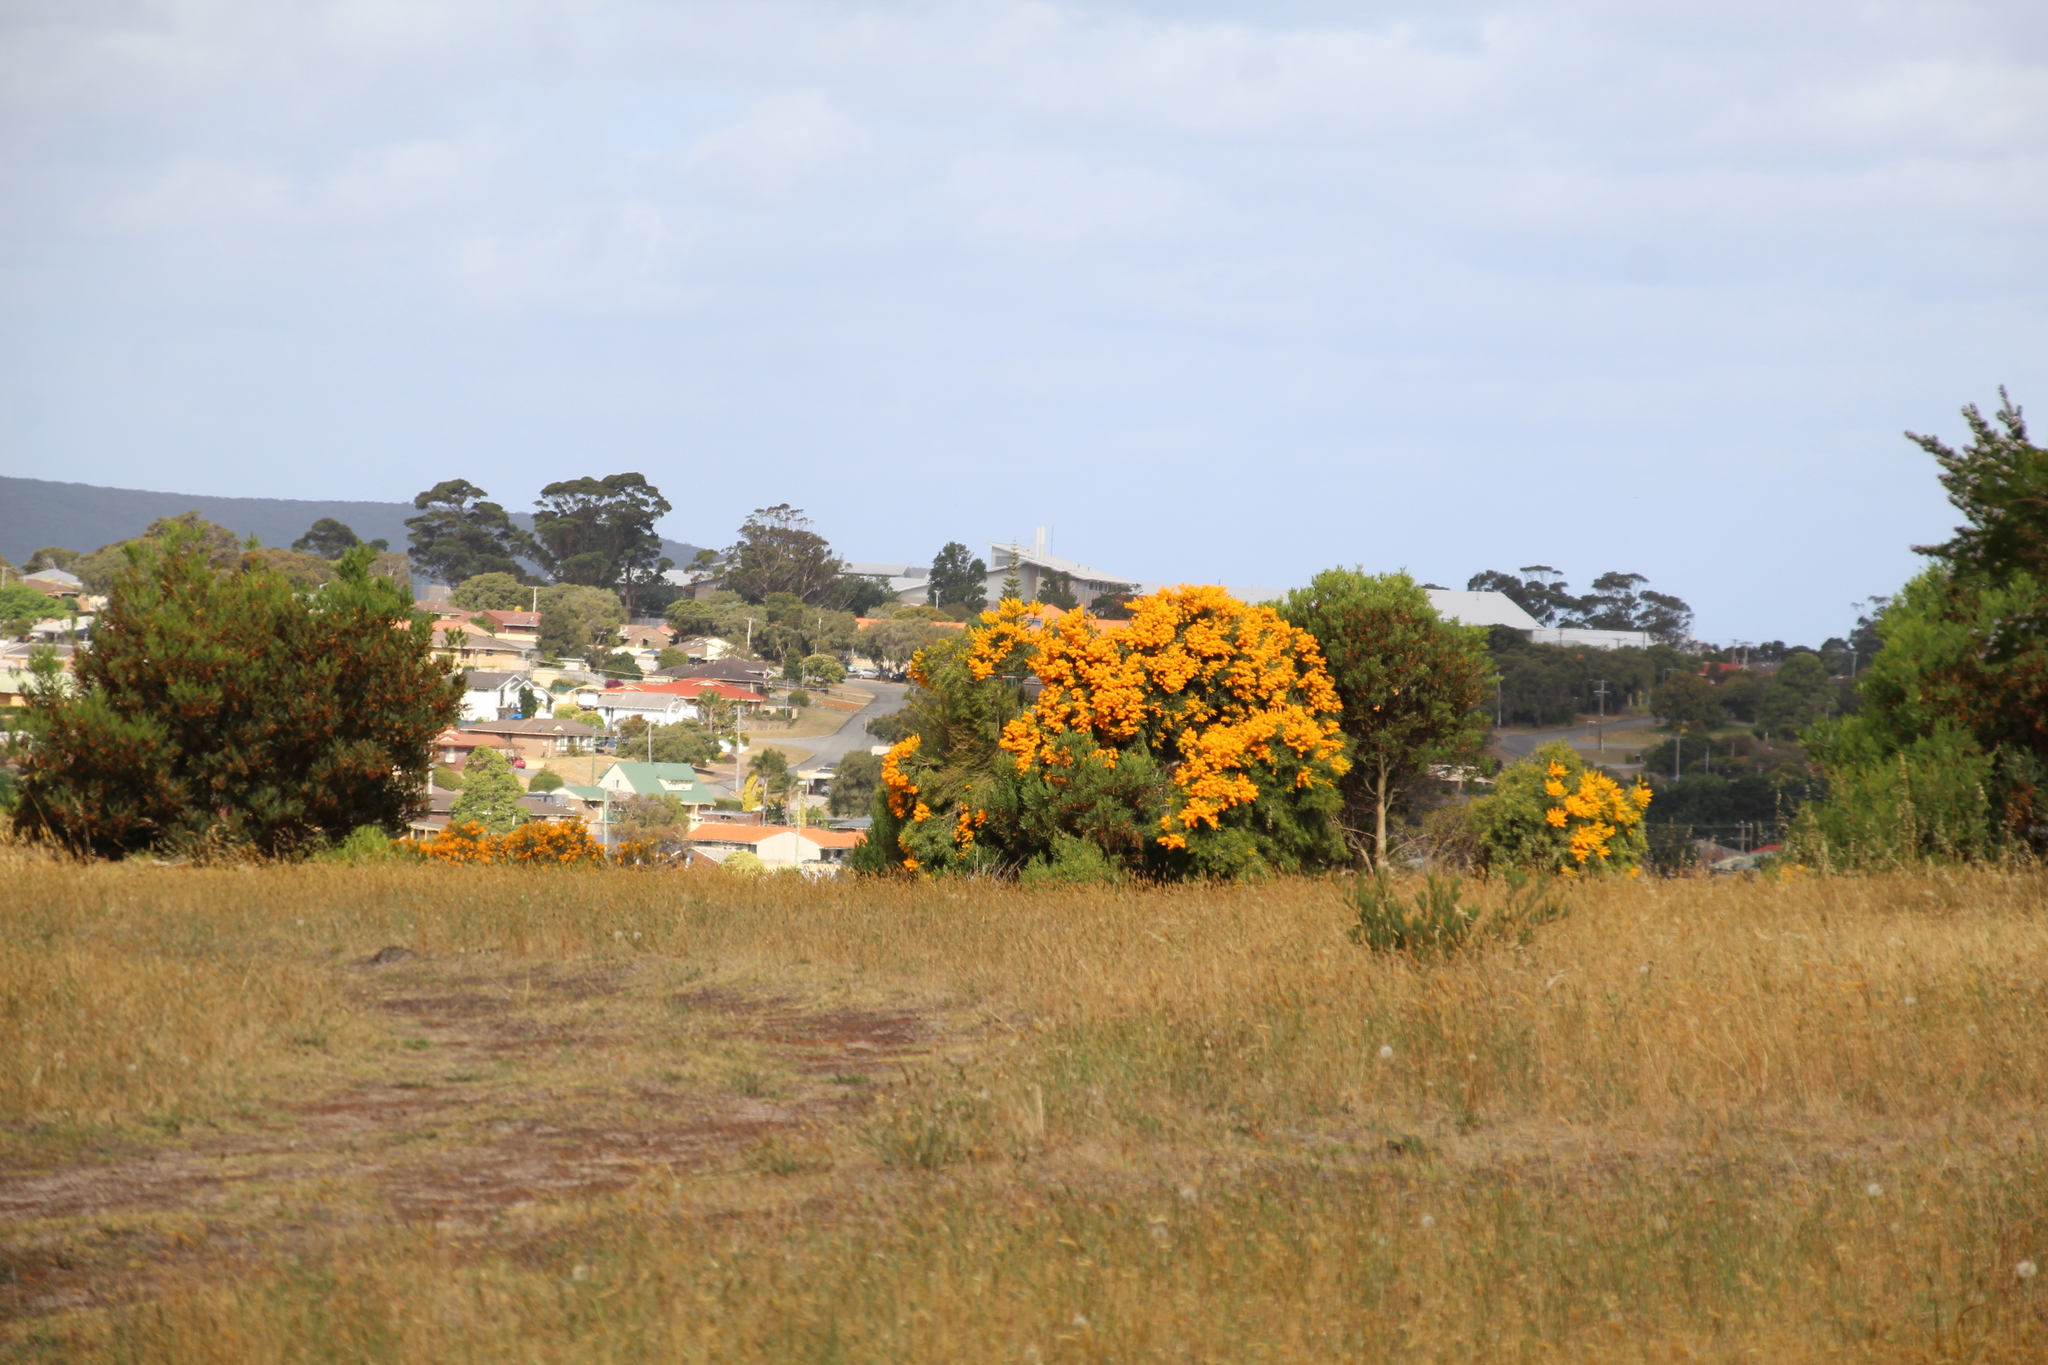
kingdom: Plantae
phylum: Tracheophyta
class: Magnoliopsida
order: Santalales
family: Loranthaceae
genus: Nuytsia
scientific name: Nuytsia floribunda
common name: Western australian christmastree
